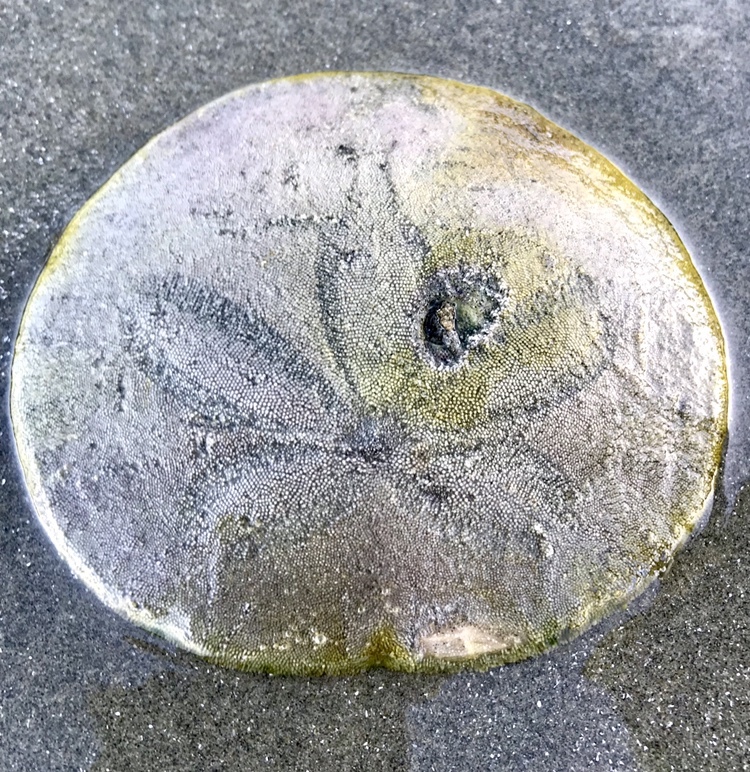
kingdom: Animalia
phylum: Echinodermata
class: Echinoidea
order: Echinolampadacea
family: Dendrasteridae
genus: Dendraster
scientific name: Dendraster excentricus
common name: Eccentric sand dollar sea urchin
